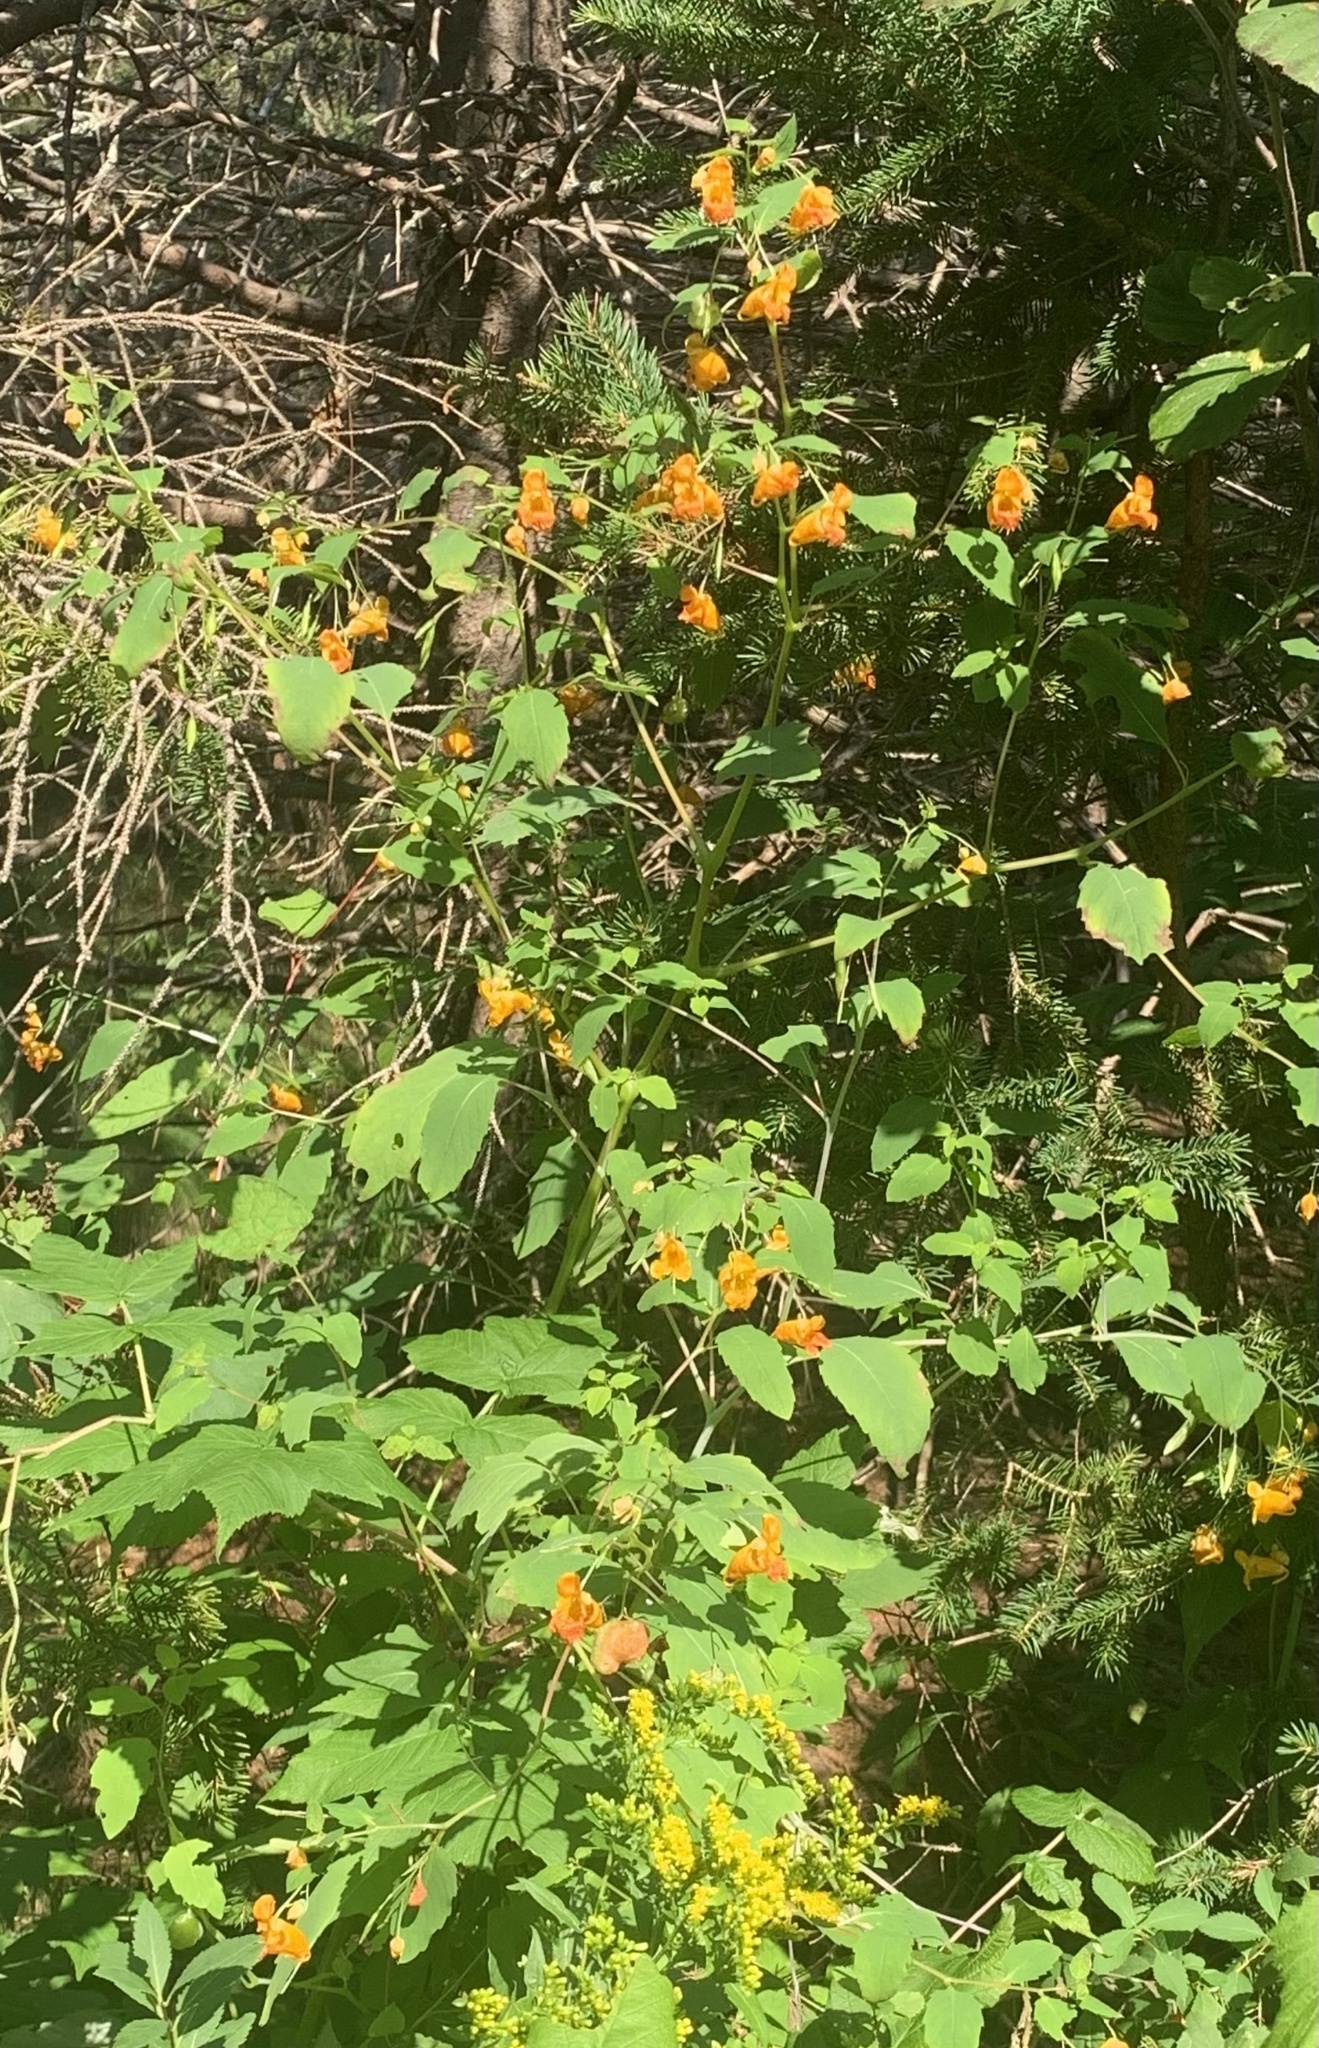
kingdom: Plantae
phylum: Tracheophyta
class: Magnoliopsida
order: Ericales
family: Balsaminaceae
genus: Impatiens
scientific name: Impatiens capensis
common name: Orange balsam
